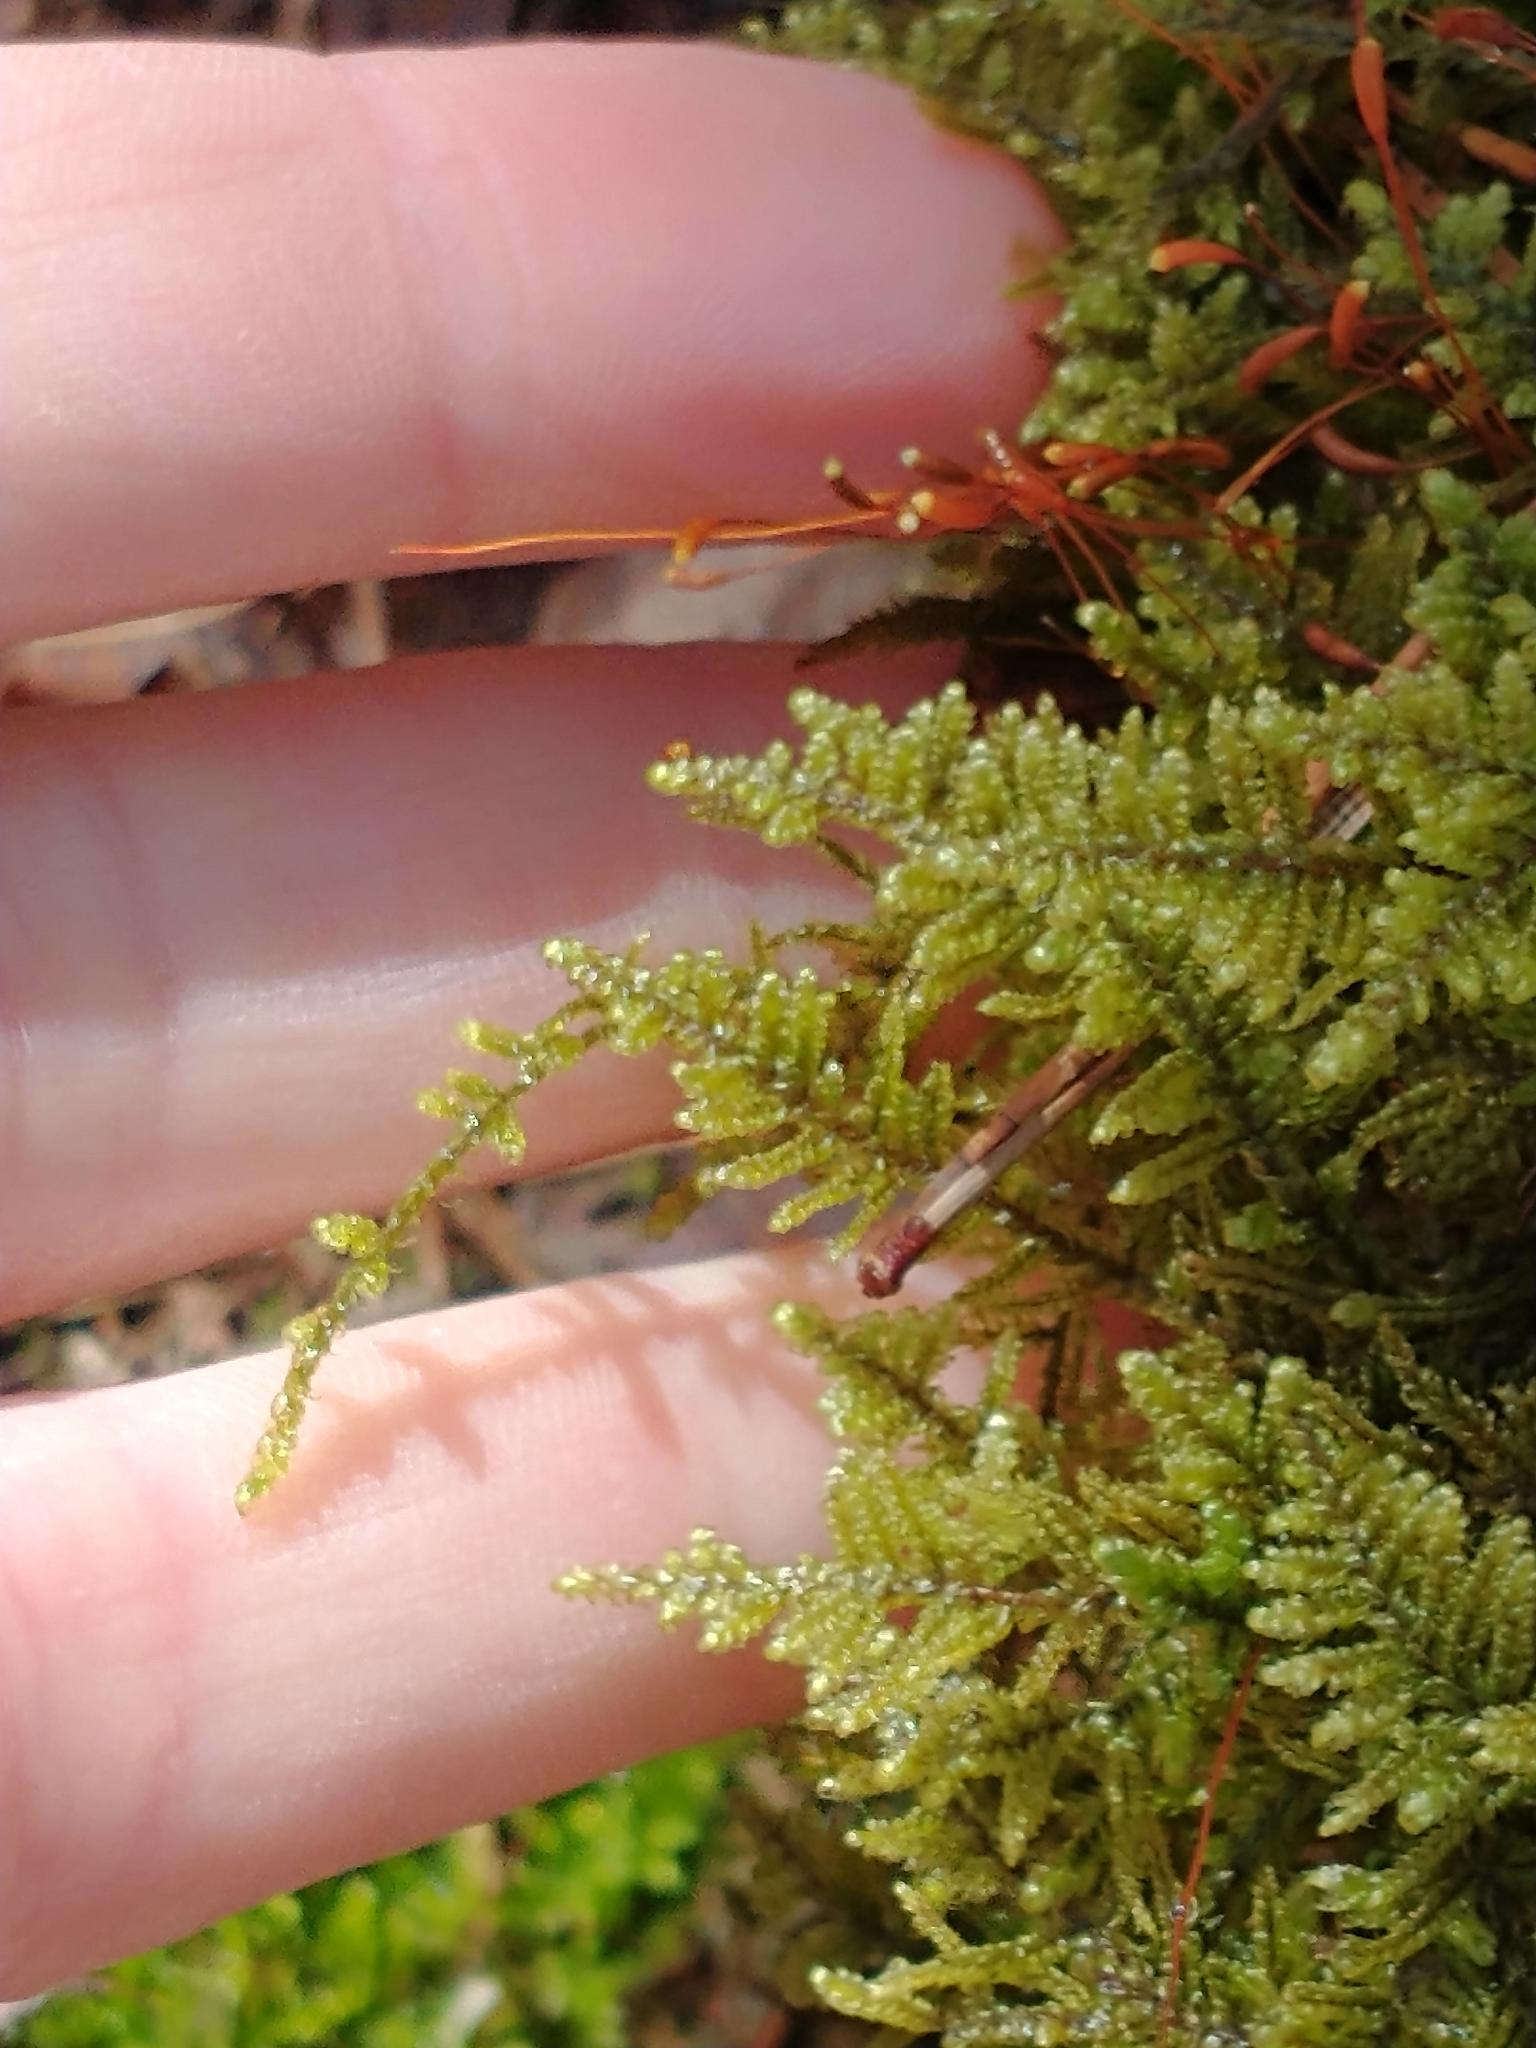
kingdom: Plantae
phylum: Bryophyta
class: Bryopsida
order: Hypnales
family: Callicladiaceae
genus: Callicladium
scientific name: Callicladium imponens
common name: Brocade moss
